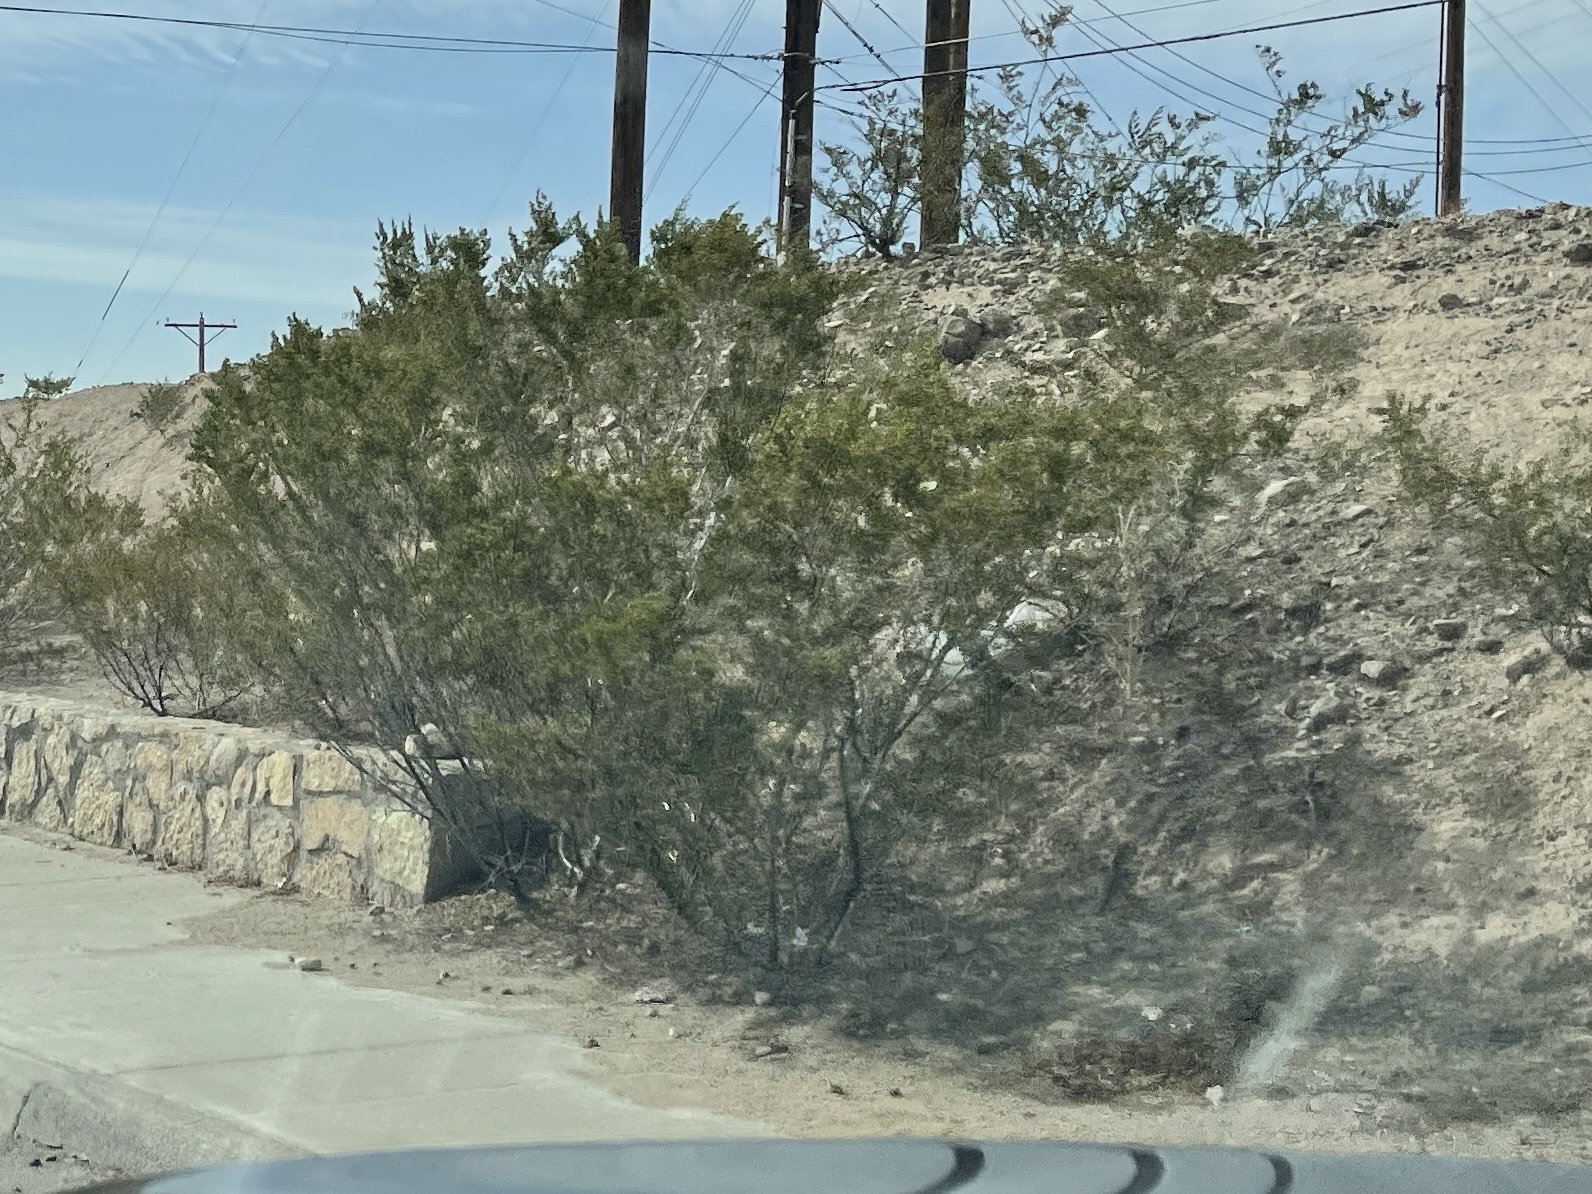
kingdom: Plantae
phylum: Tracheophyta
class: Magnoliopsida
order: Zygophyllales
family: Zygophyllaceae
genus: Larrea
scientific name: Larrea tridentata
